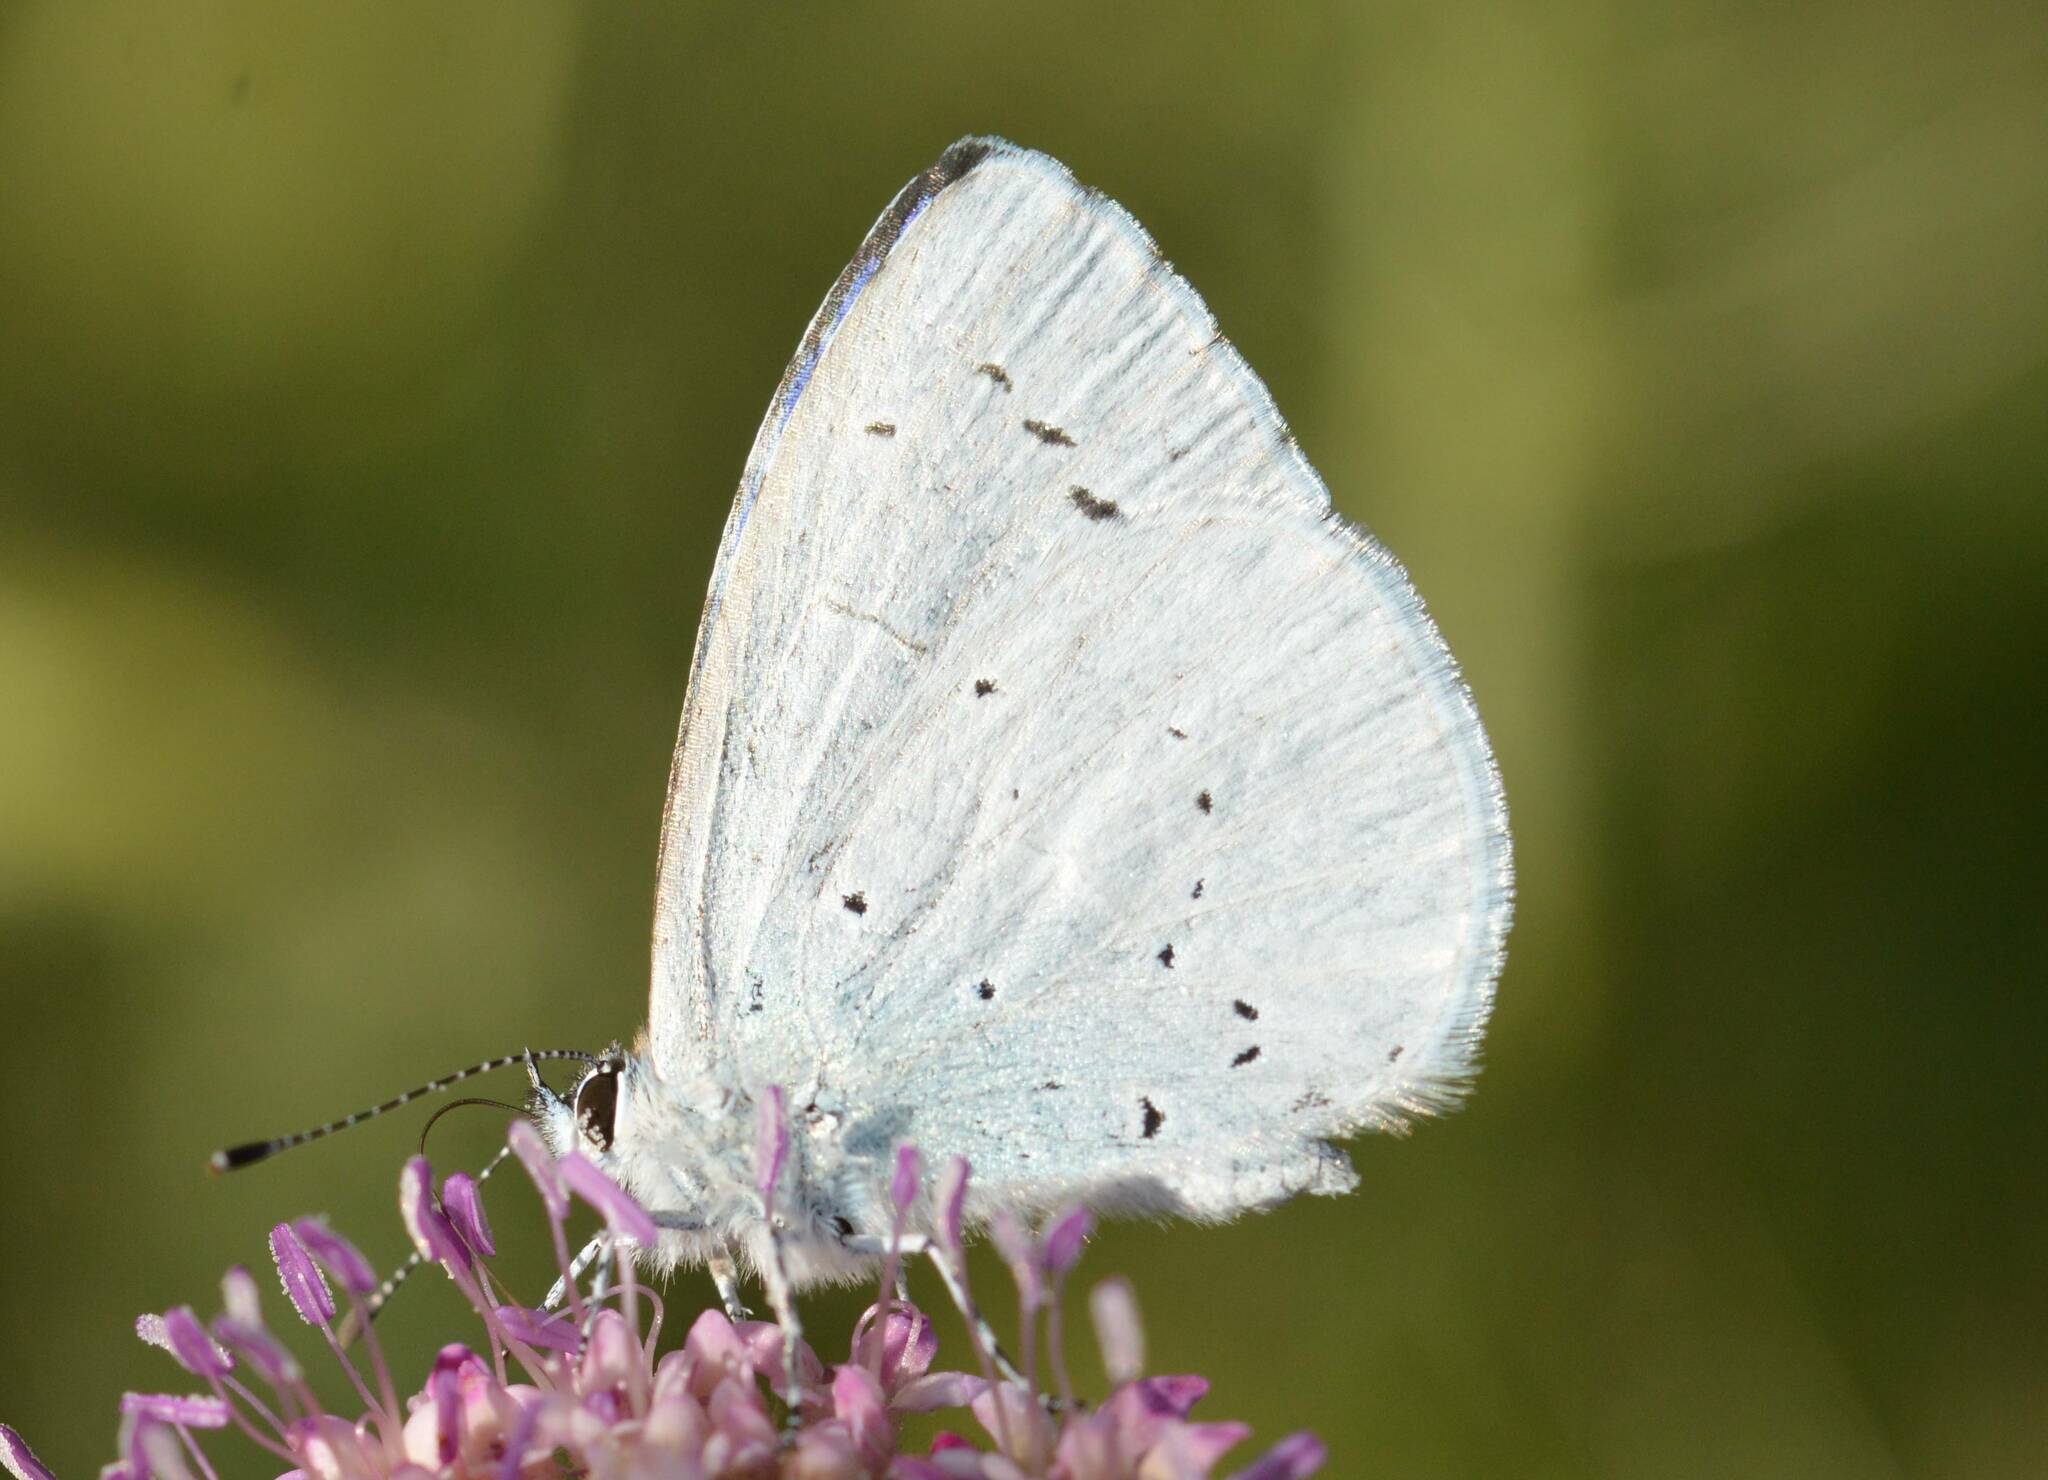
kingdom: Animalia
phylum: Arthropoda
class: Insecta
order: Lepidoptera
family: Lycaenidae
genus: Celastrina
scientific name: Celastrina argiolus
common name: Holly blue
